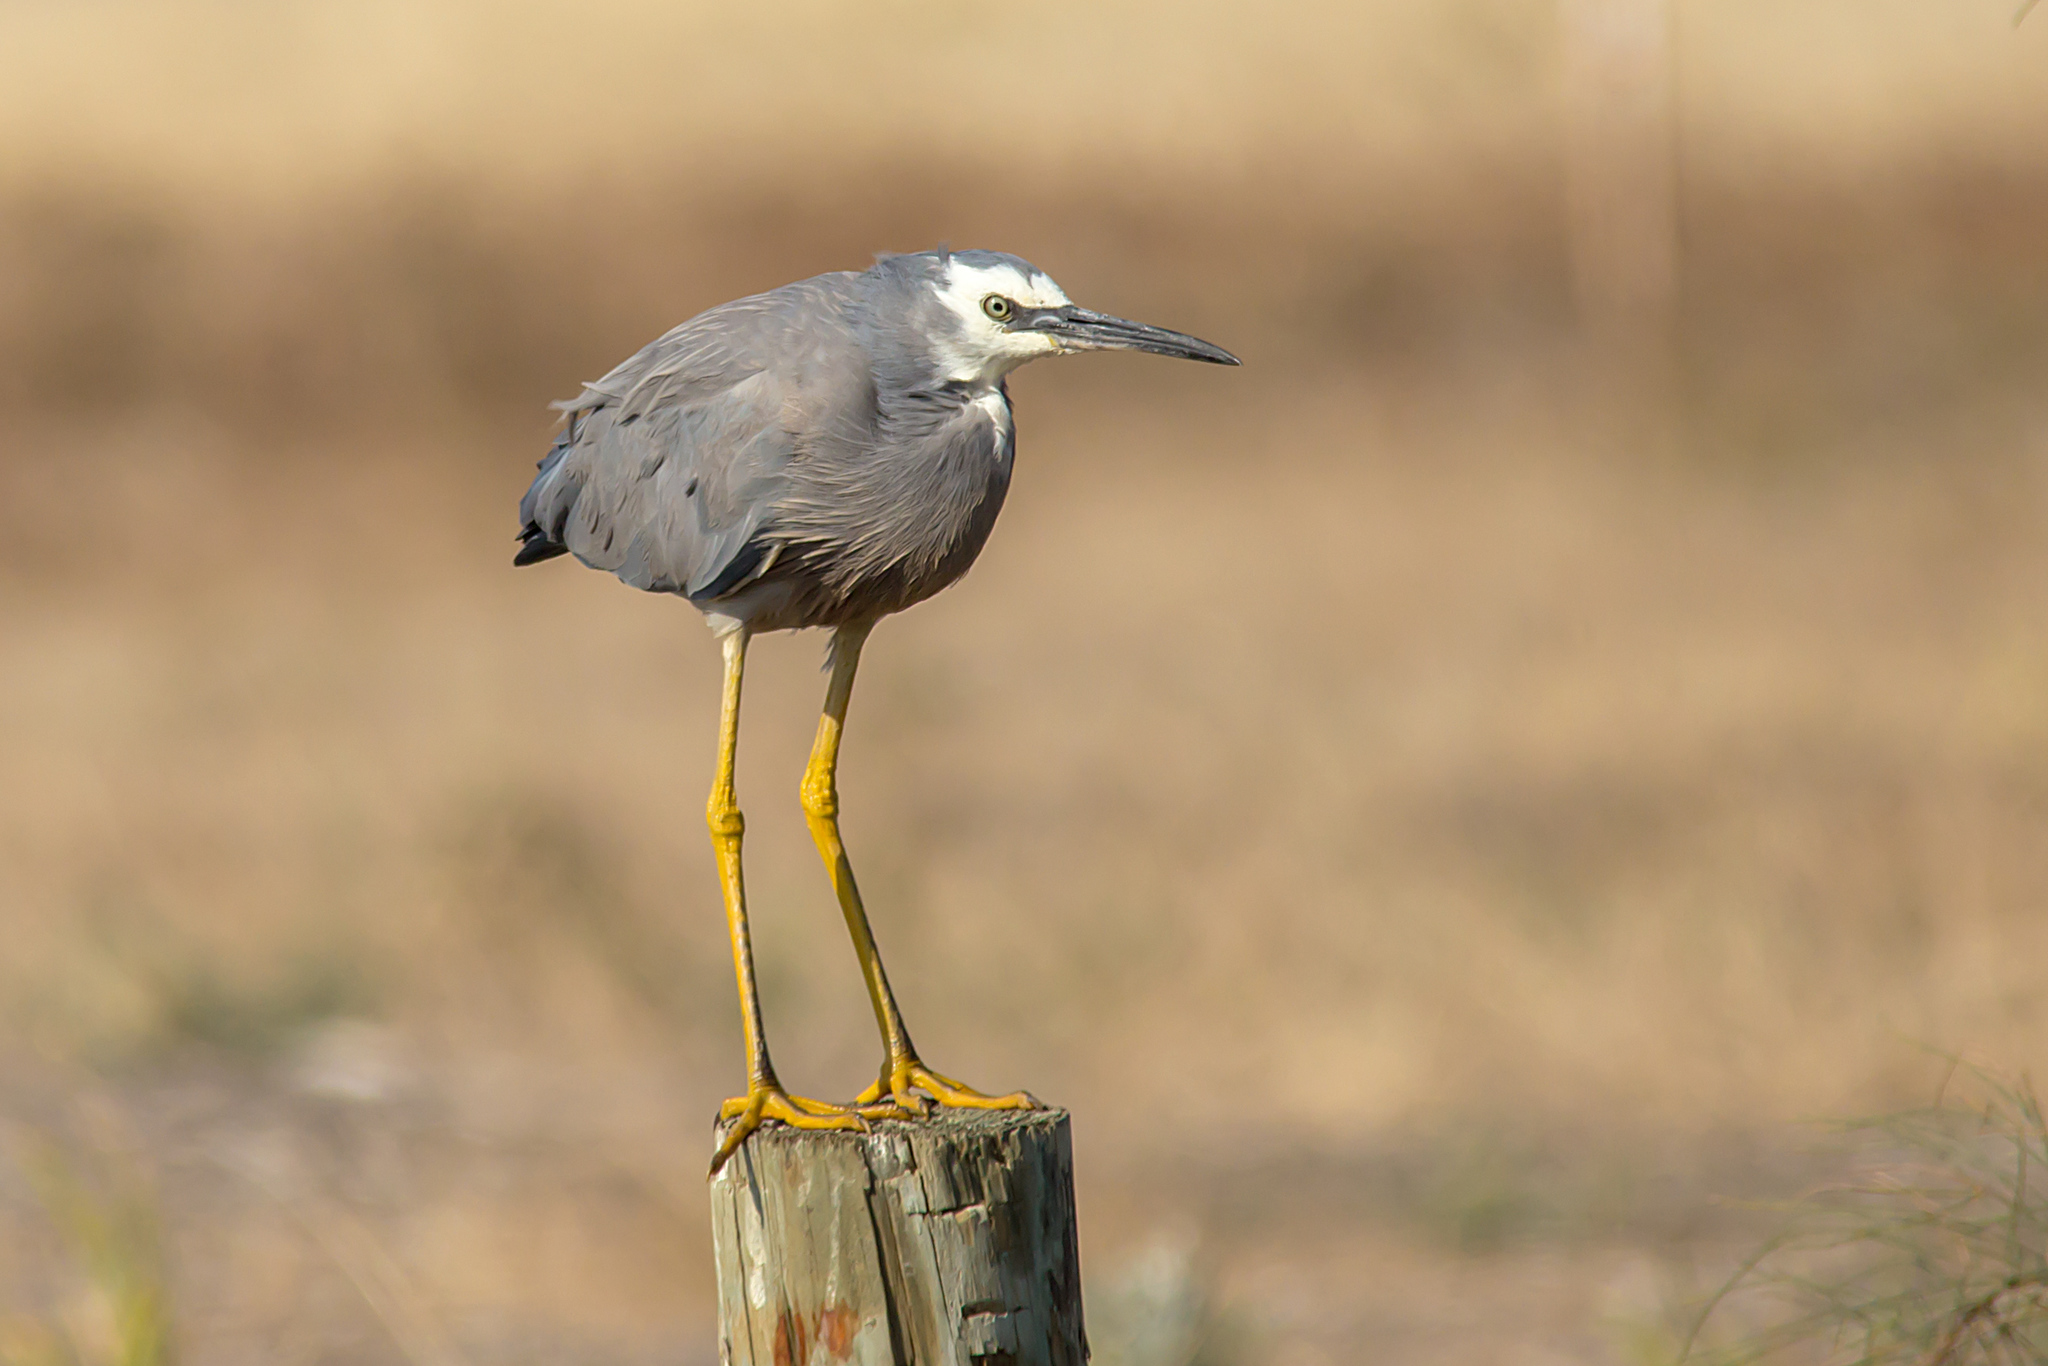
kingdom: Animalia
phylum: Chordata
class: Aves
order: Pelecaniformes
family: Ardeidae
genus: Egretta
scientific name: Egretta novaehollandiae
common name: White-faced heron
